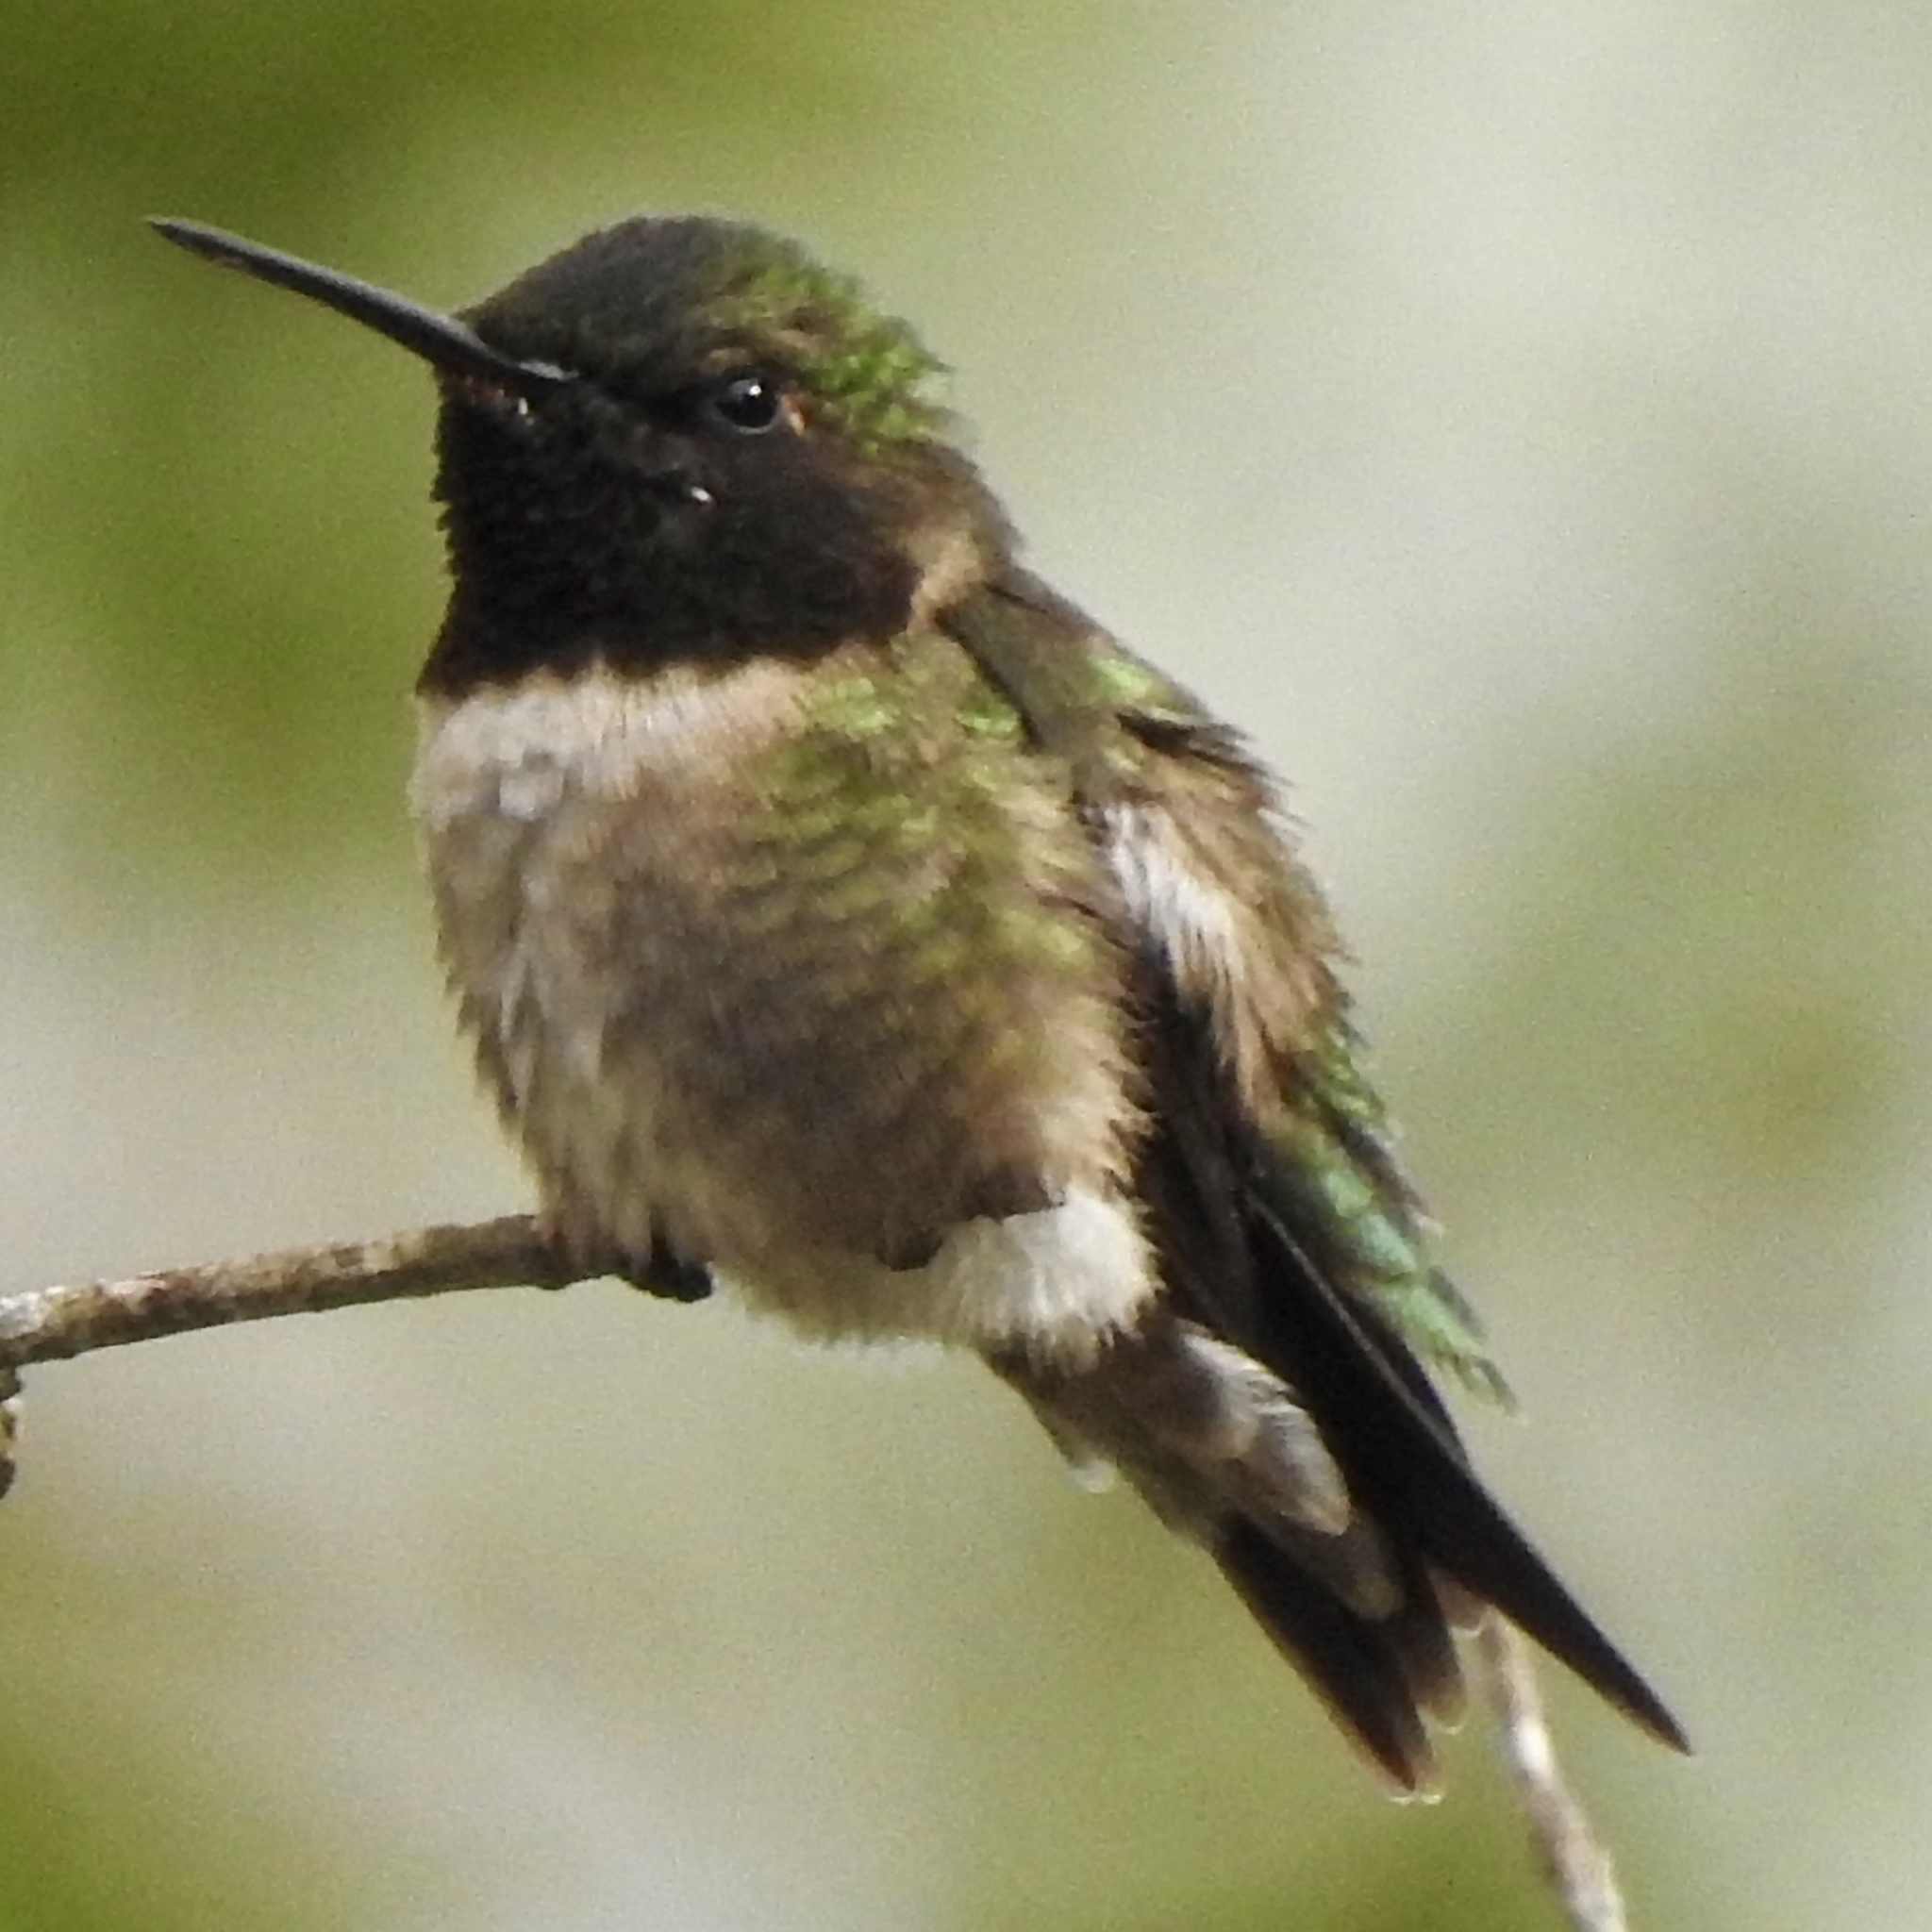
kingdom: Animalia
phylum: Chordata
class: Aves
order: Apodiformes
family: Trochilidae
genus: Archilochus
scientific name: Archilochus colubris
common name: Ruby-throated hummingbird
